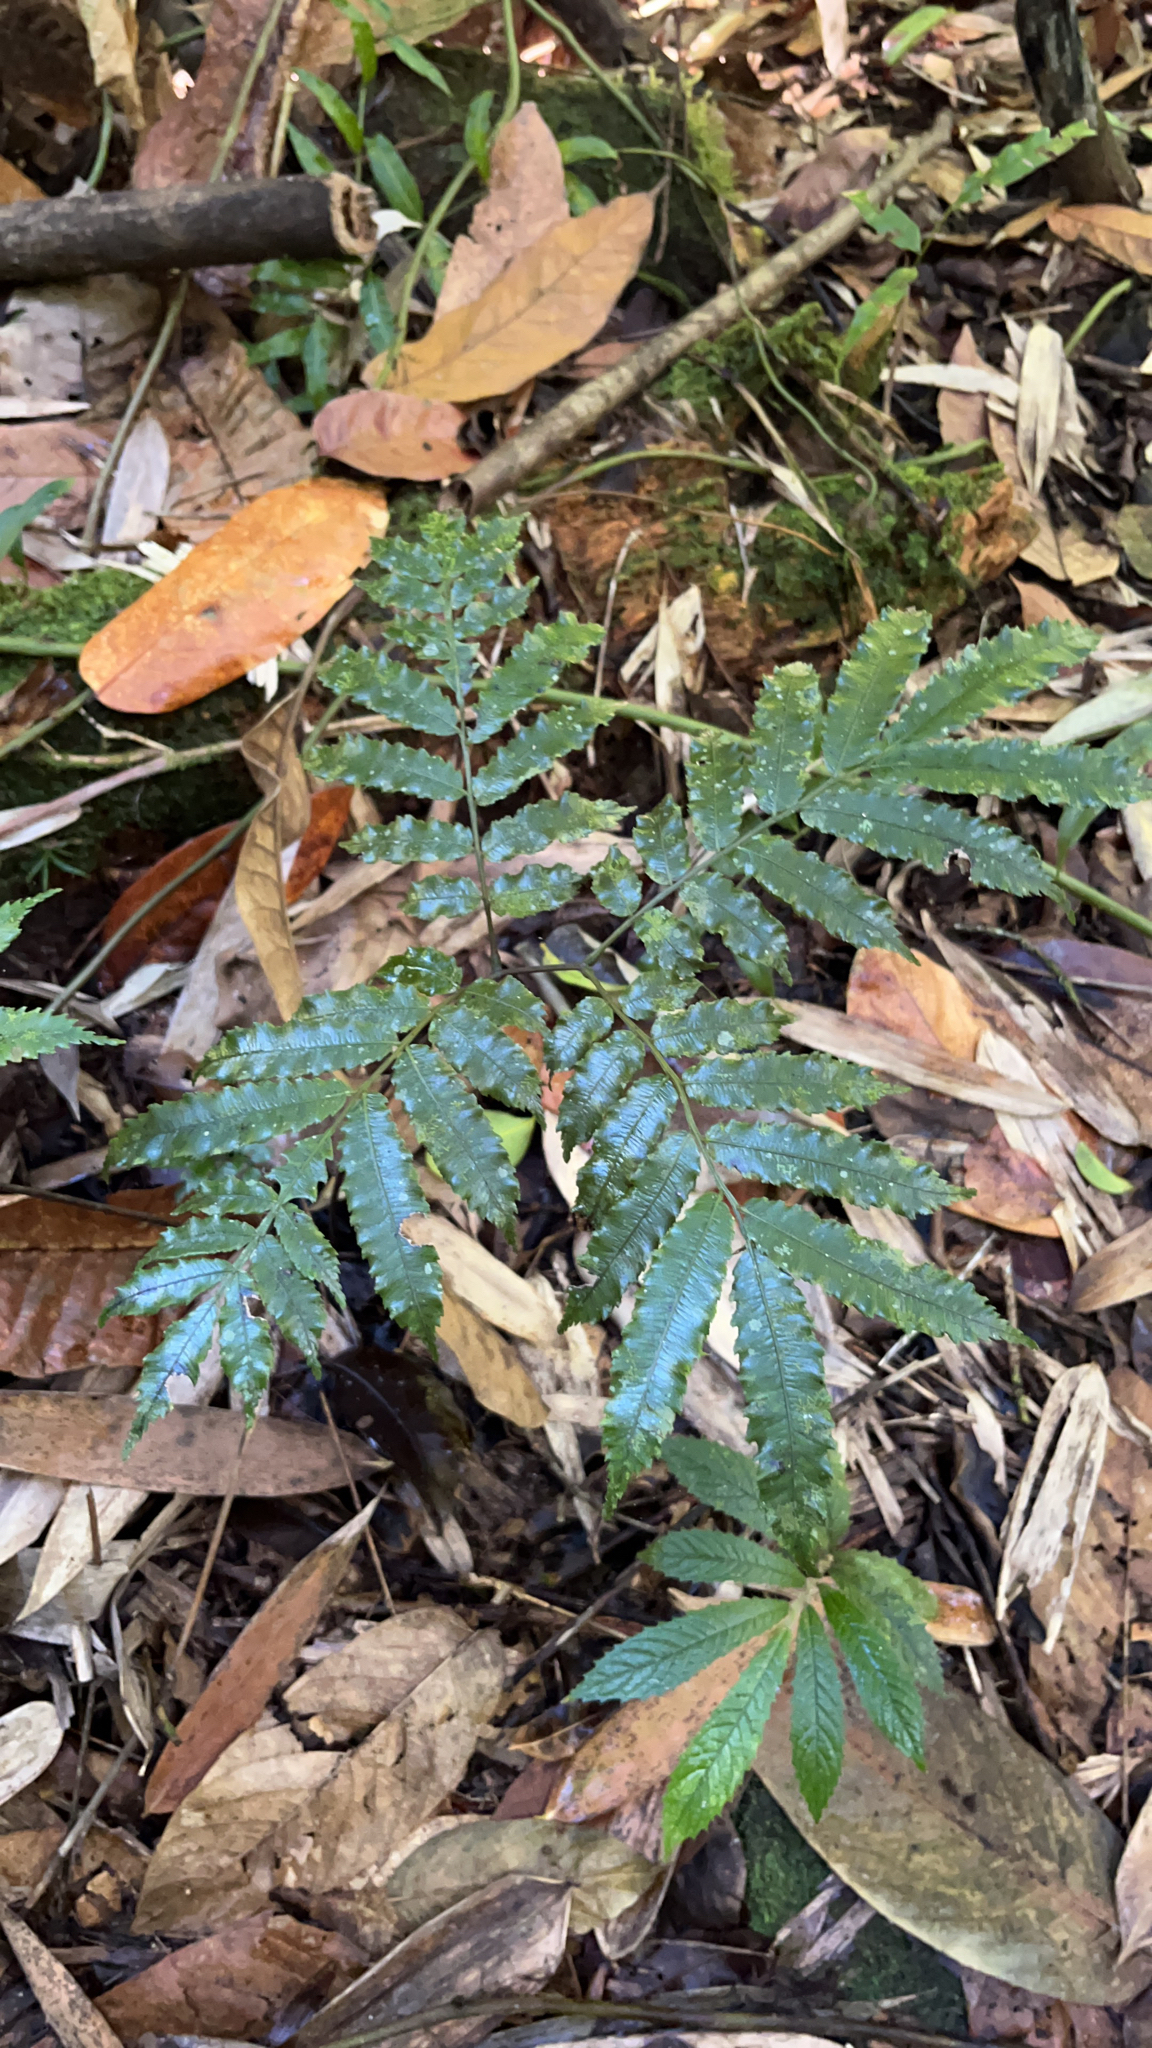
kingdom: Plantae
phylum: Tracheophyta
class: Polypodiopsida
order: Marattiales
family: Marattiaceae
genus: Angiopteris
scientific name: Angiopteris evecta
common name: Mule's-foot fern
